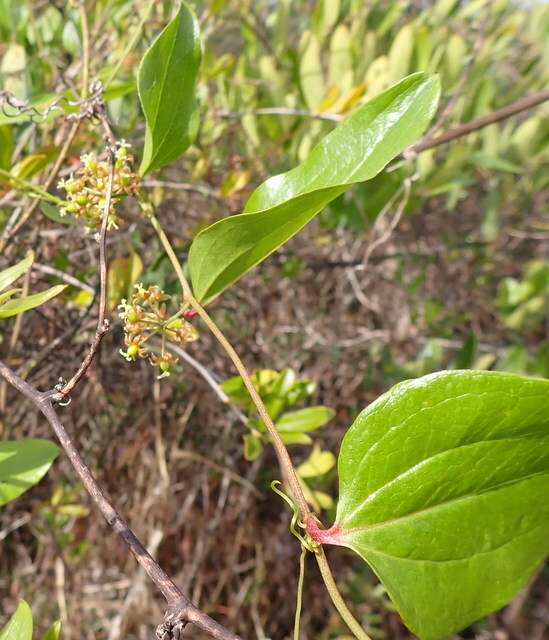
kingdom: Plantae
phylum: Tracheophyta
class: Liliopsida
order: Liliales
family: Smilacaceae
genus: Smilax
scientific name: Smilax walteri
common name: Coral greenbrier
